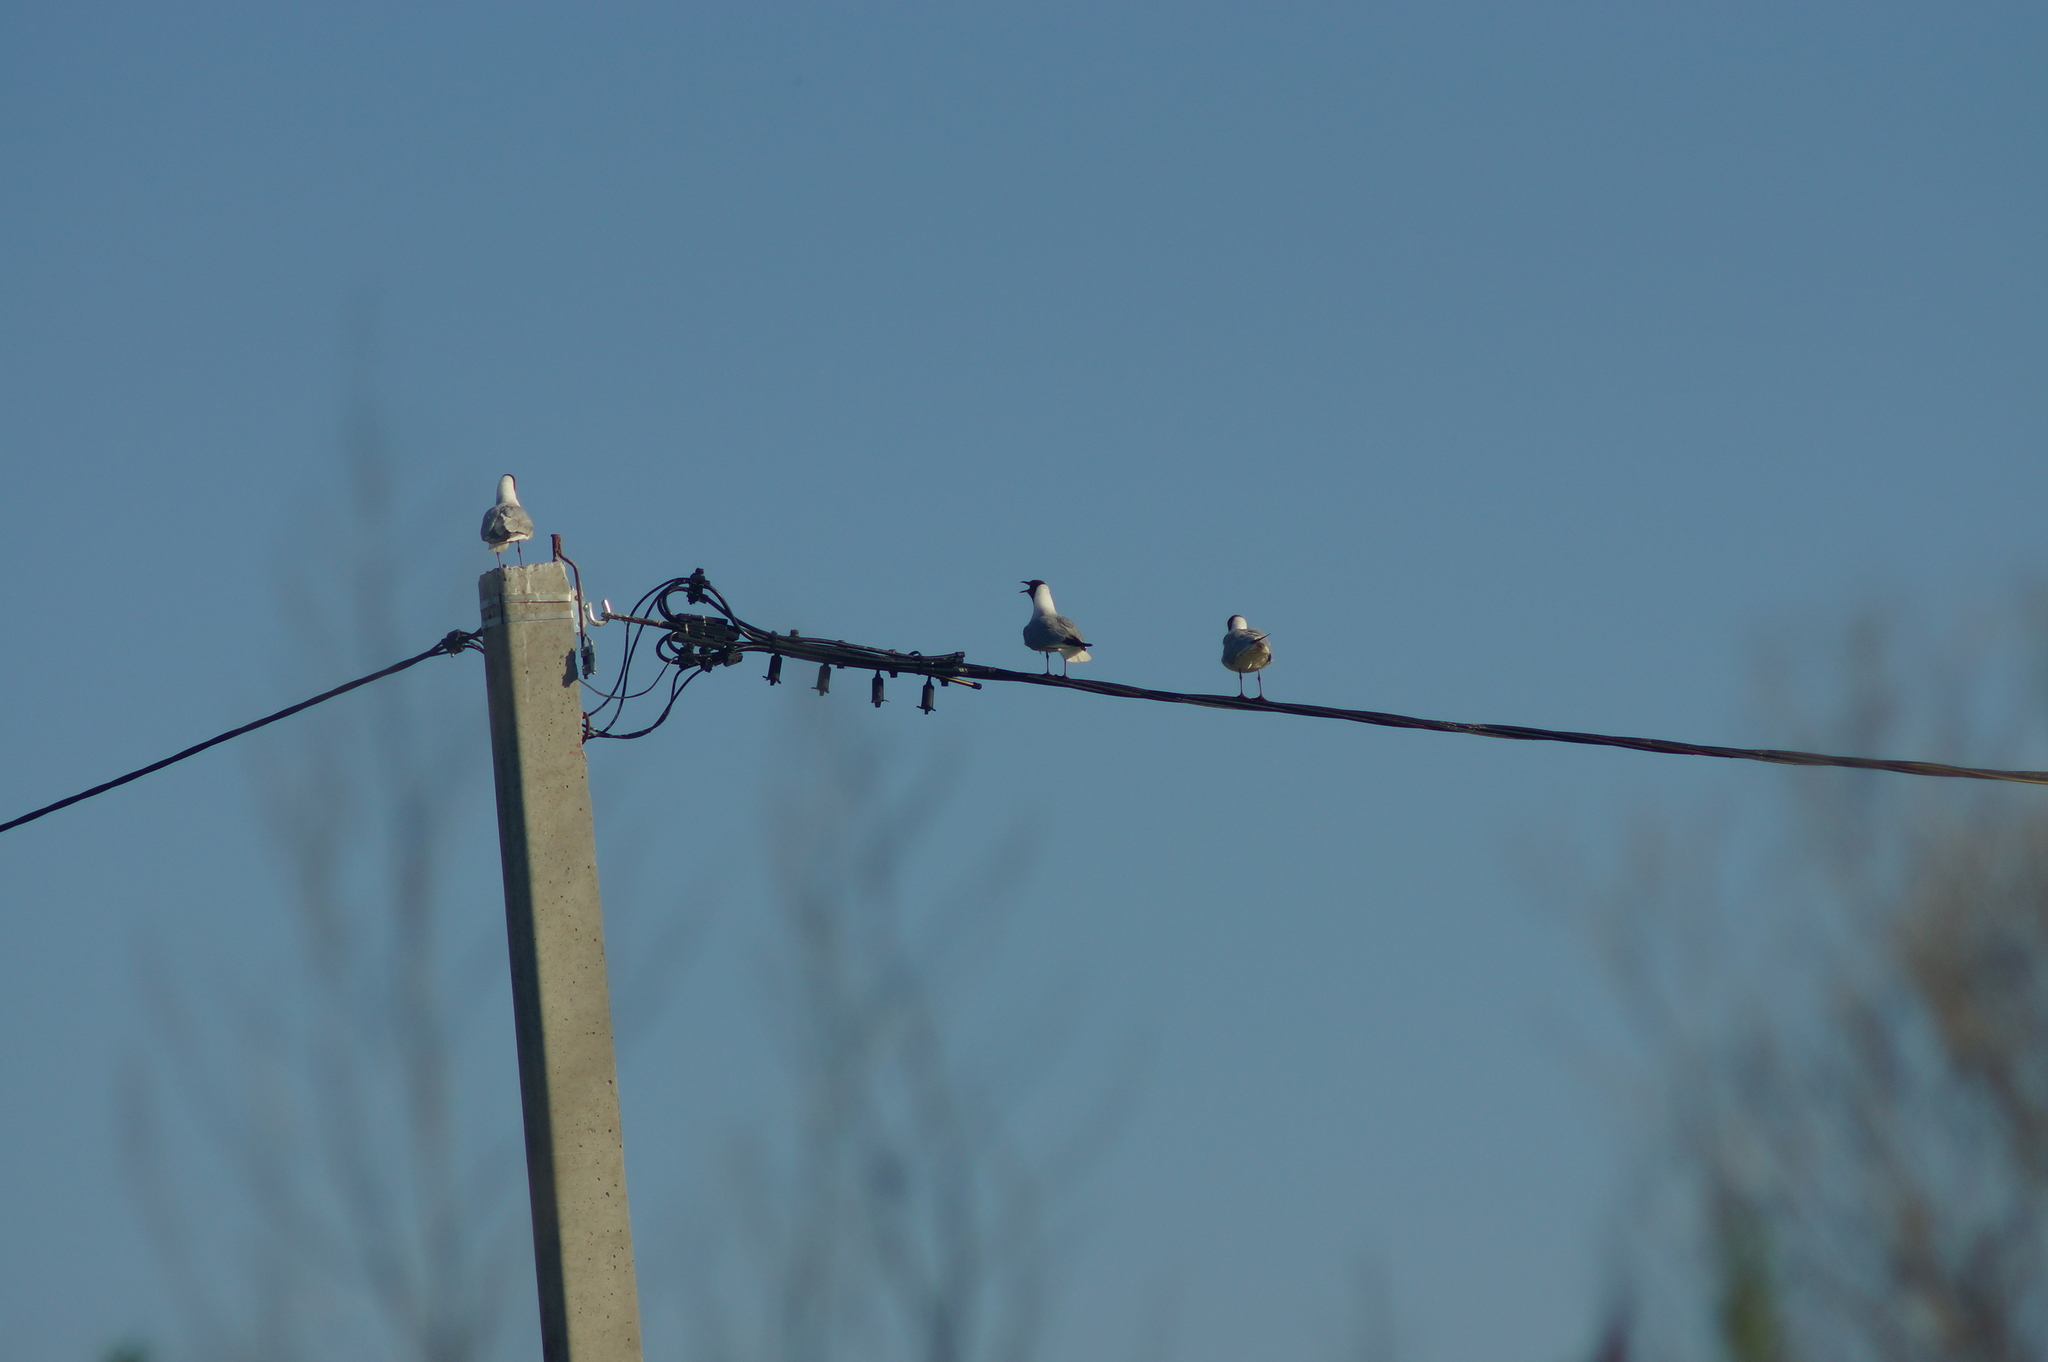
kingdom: Animalia
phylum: Chordata
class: Aves
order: Charadriiformes
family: Laridae
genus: Chroicocephalus
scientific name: Chroicocephalus ridibundus
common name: Black-headed gull
